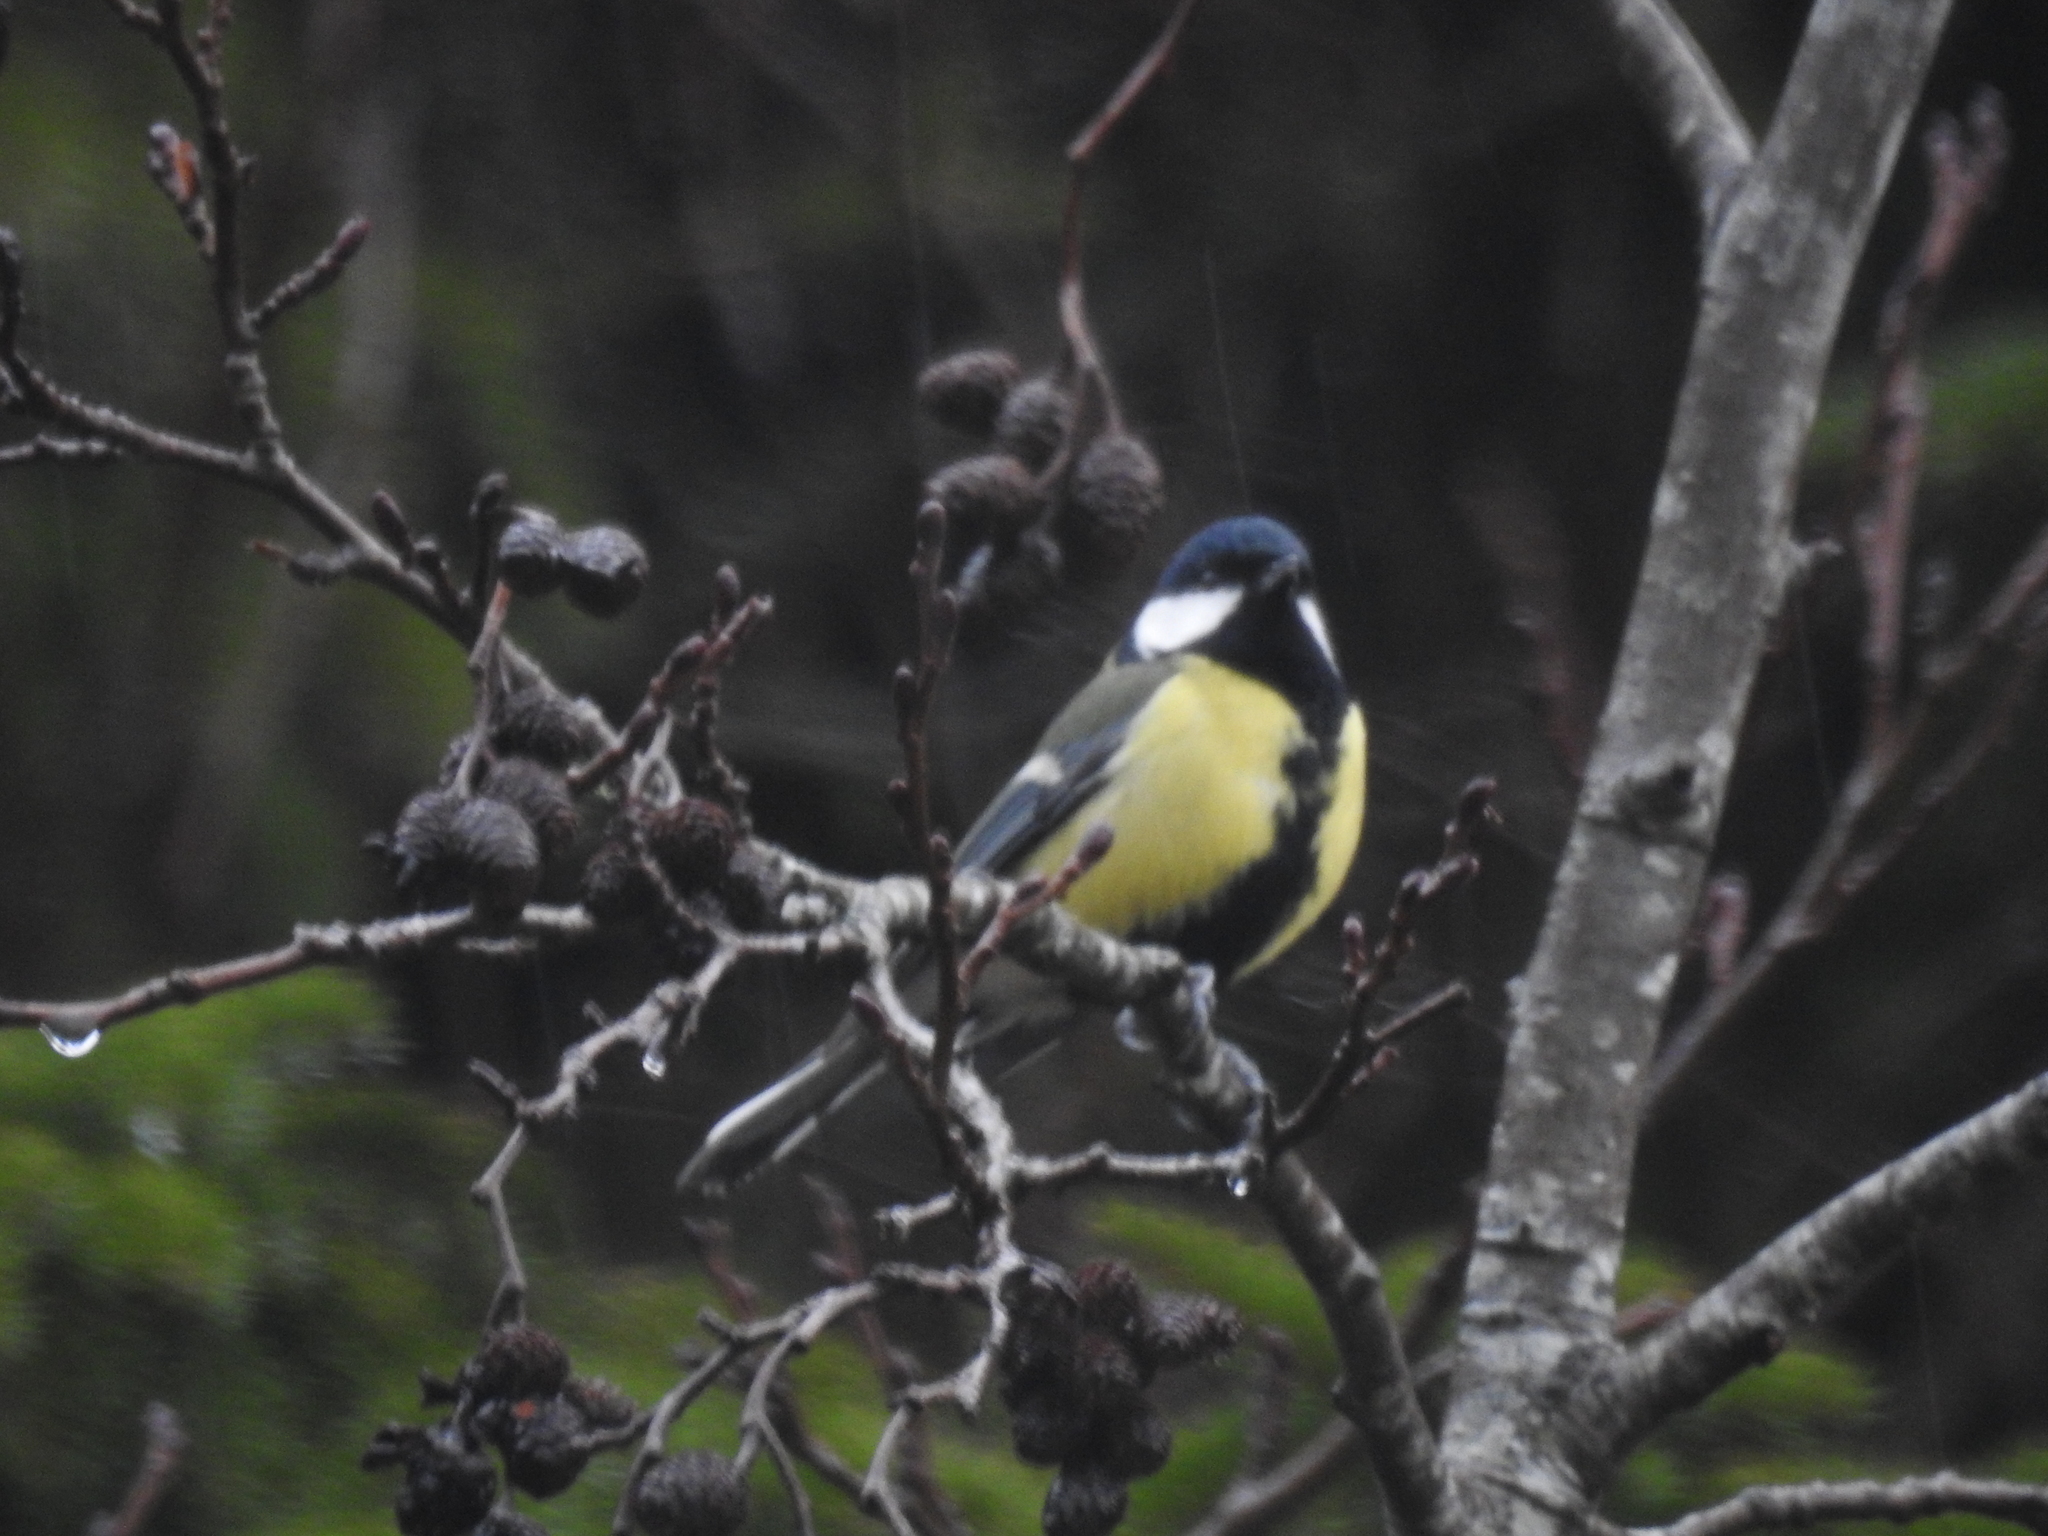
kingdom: Animalia
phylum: Chordata
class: Aves
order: Passeriformes
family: Paridae
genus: Parus
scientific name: Parus major
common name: Great tit
